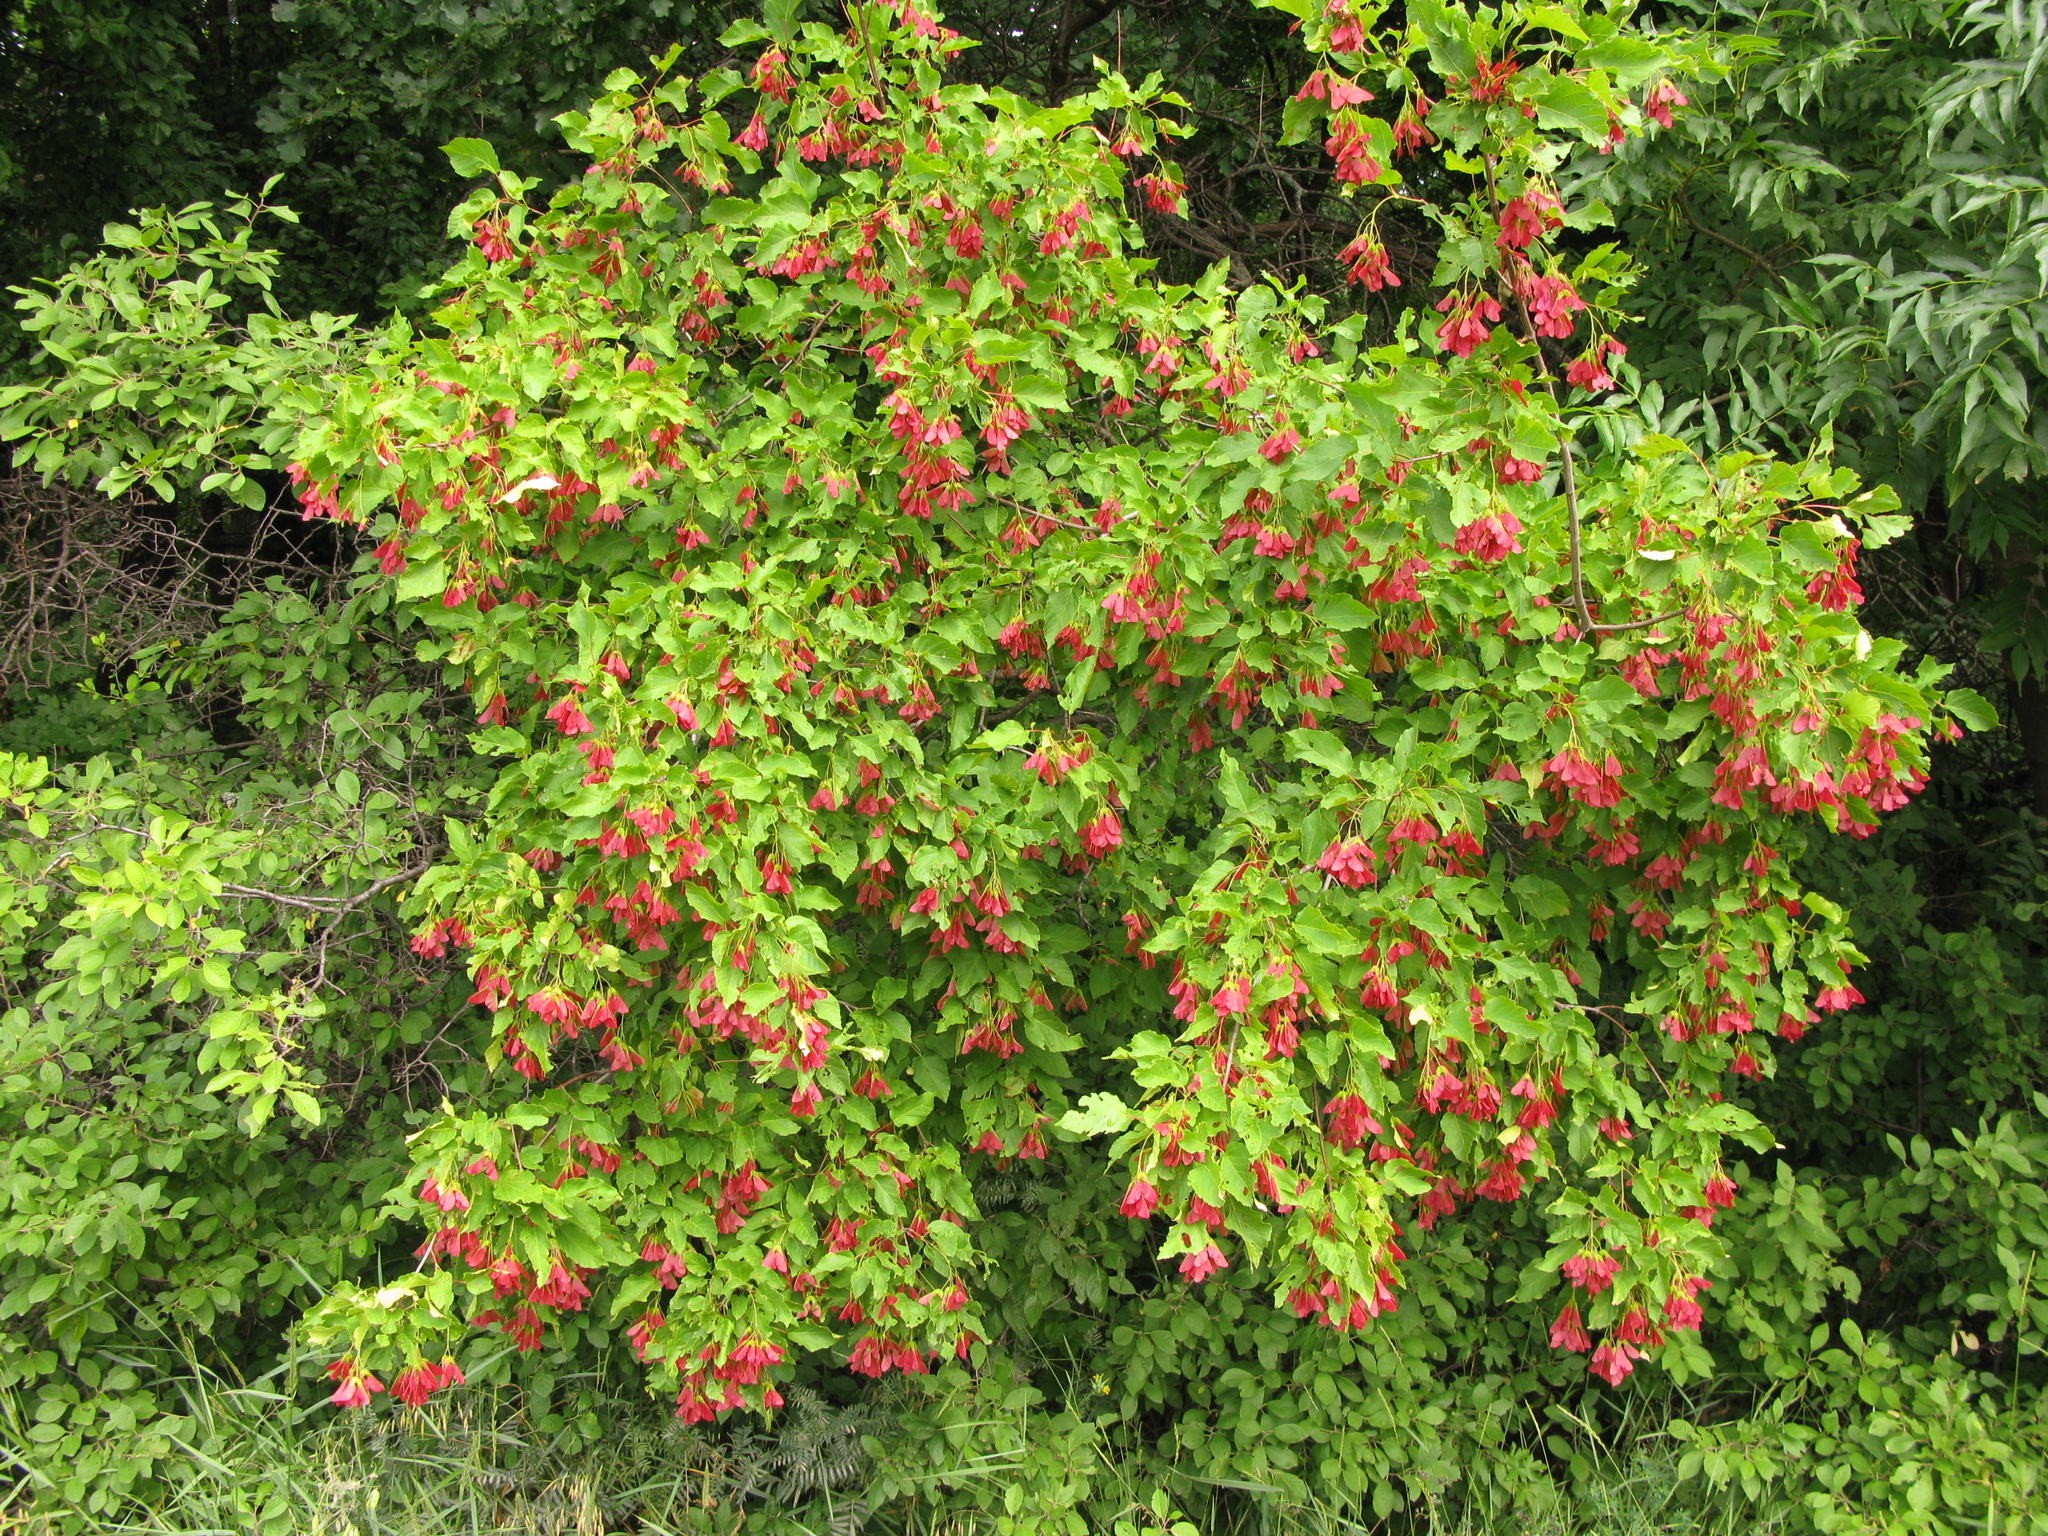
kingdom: Plantae
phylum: Tracheophyta
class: Magnoliopsida
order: Sapindales
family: Sapindaceae
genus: Acer
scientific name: Acer tataricum
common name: Tartar maple
